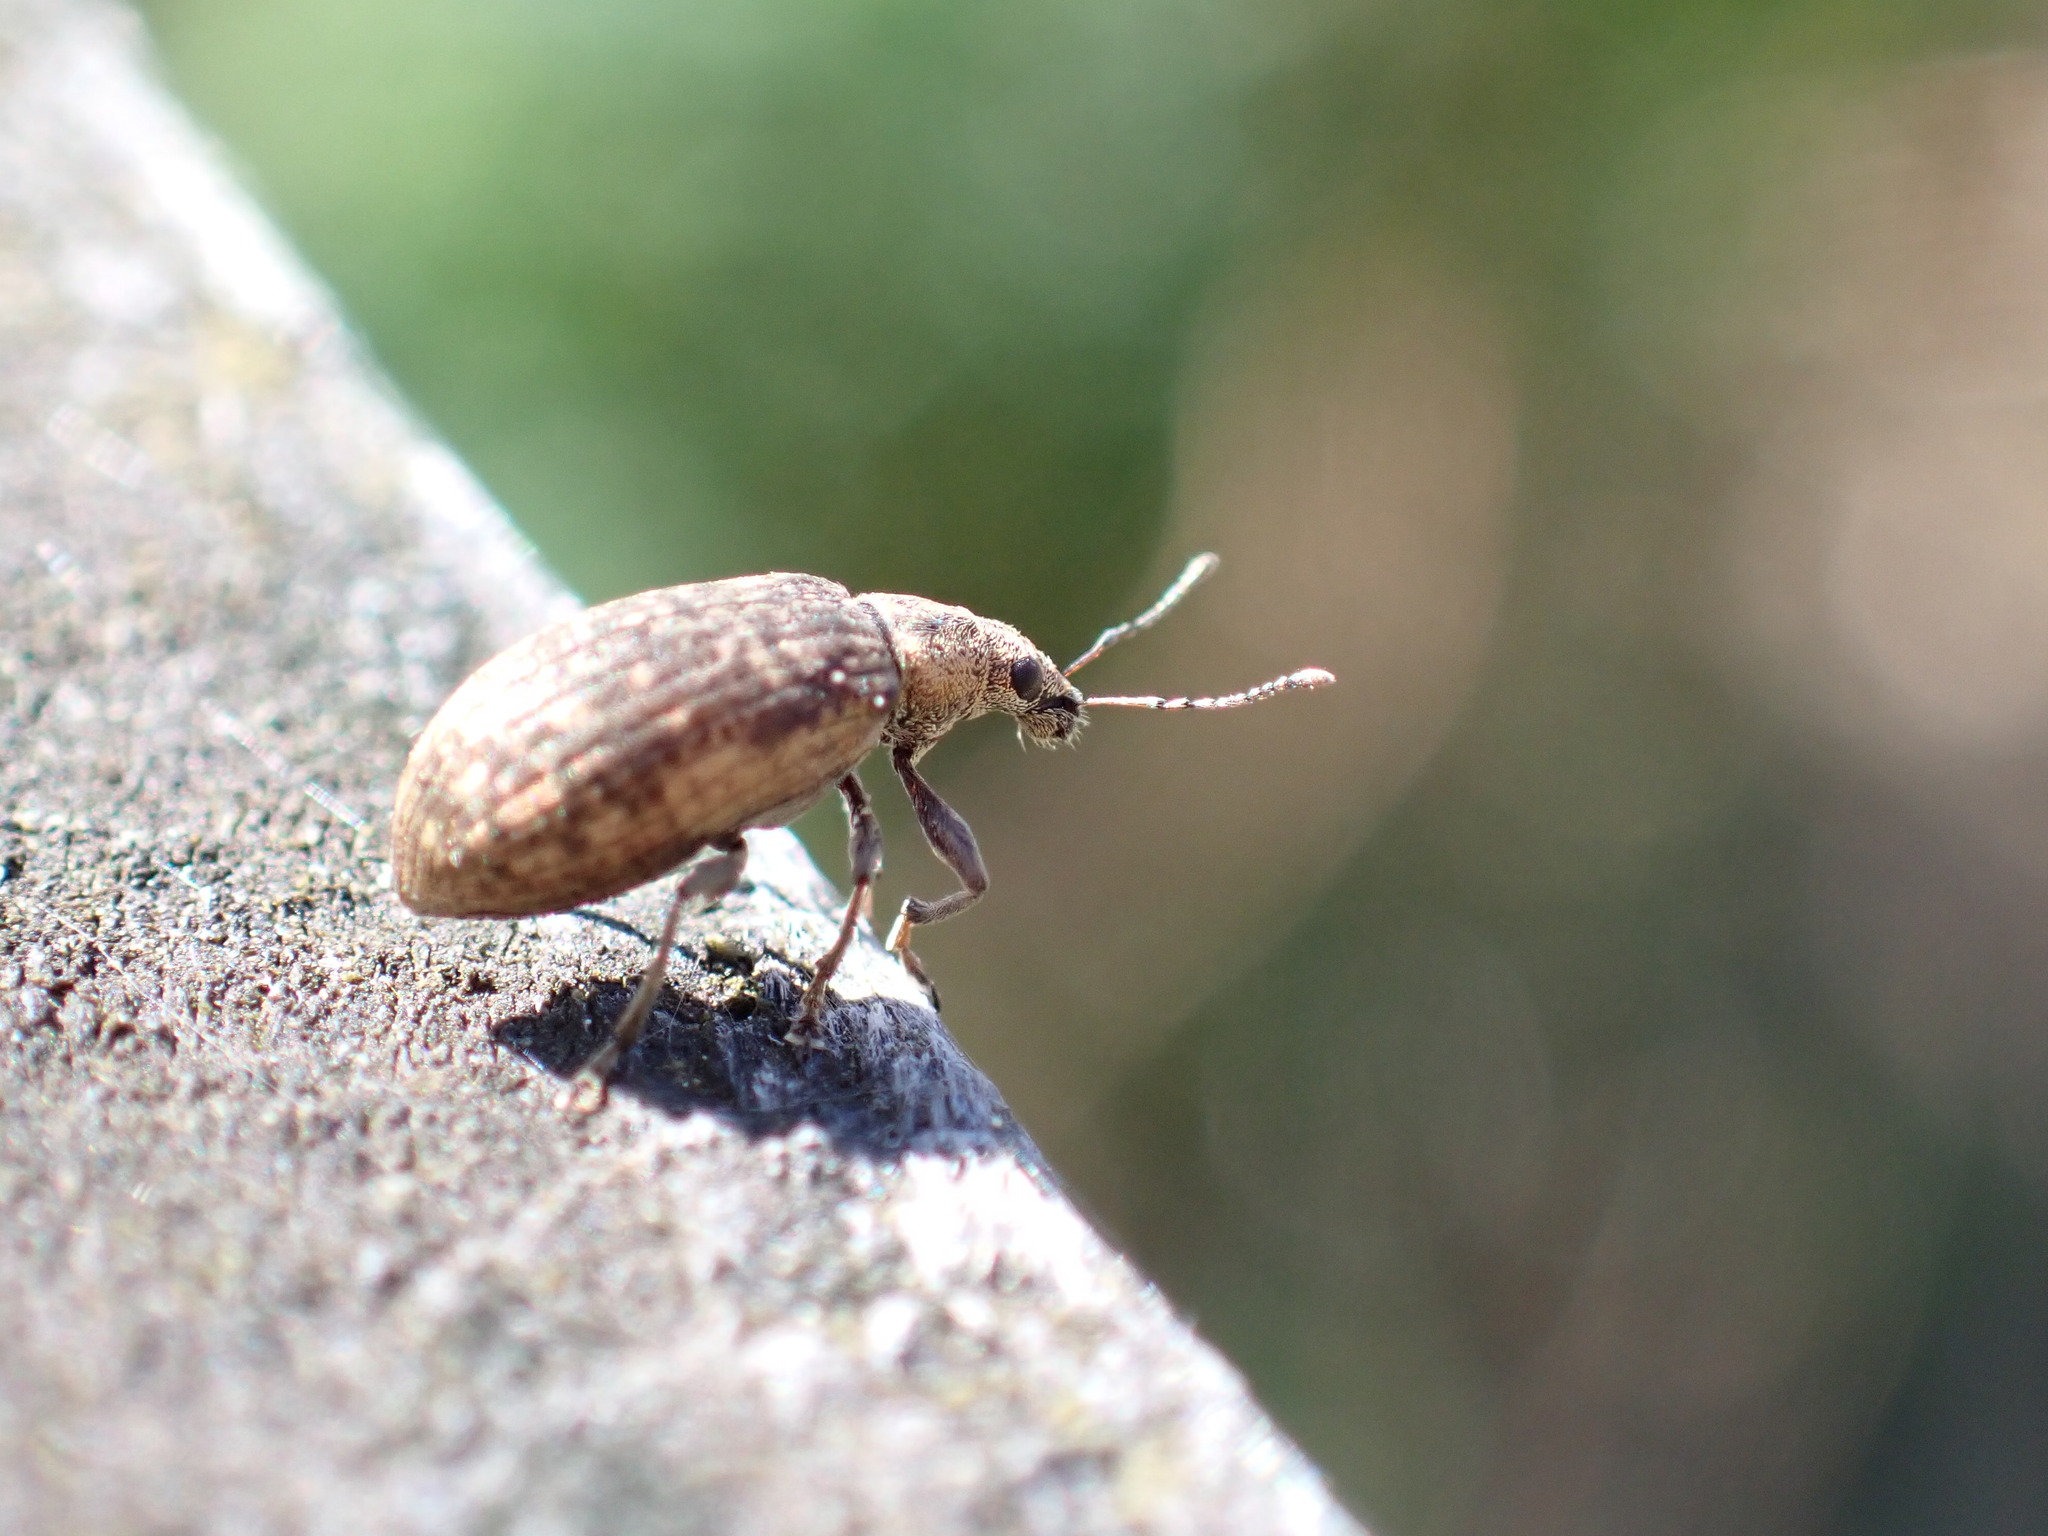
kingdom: Animalia
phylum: Arthropoda
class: Insecta
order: Coleoptera
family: Curculionidae
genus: Polydrusus
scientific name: Polydrusus pilosus
